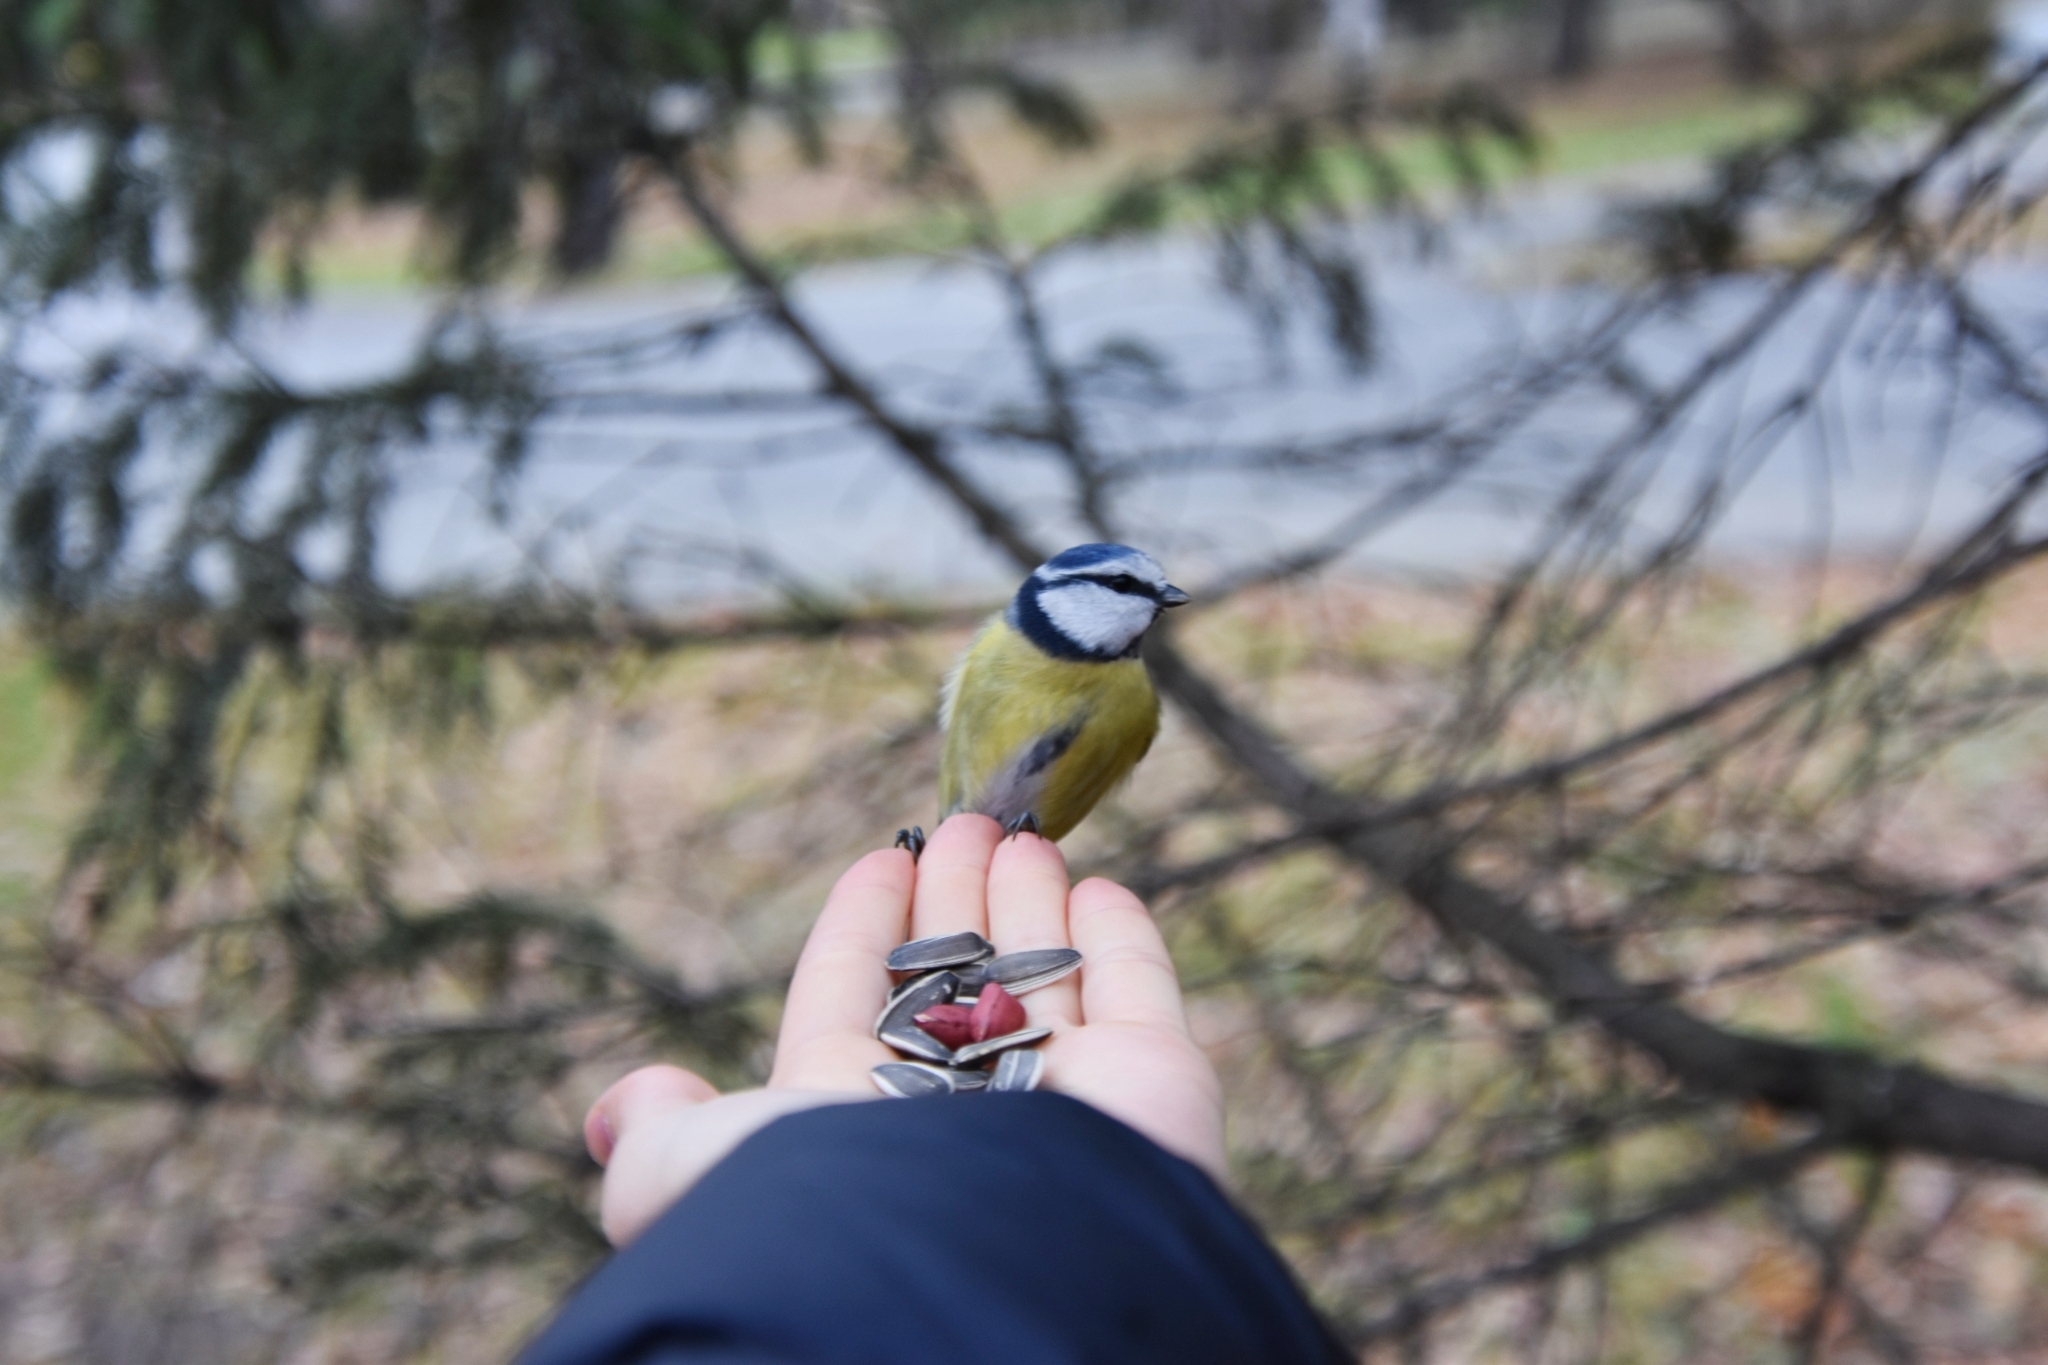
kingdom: Animalia
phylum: Chordata
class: Aves
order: Passeriformes
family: Paridae
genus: Cyanistes
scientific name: Cyanistes caeruleus
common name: Eurasian blue tit
